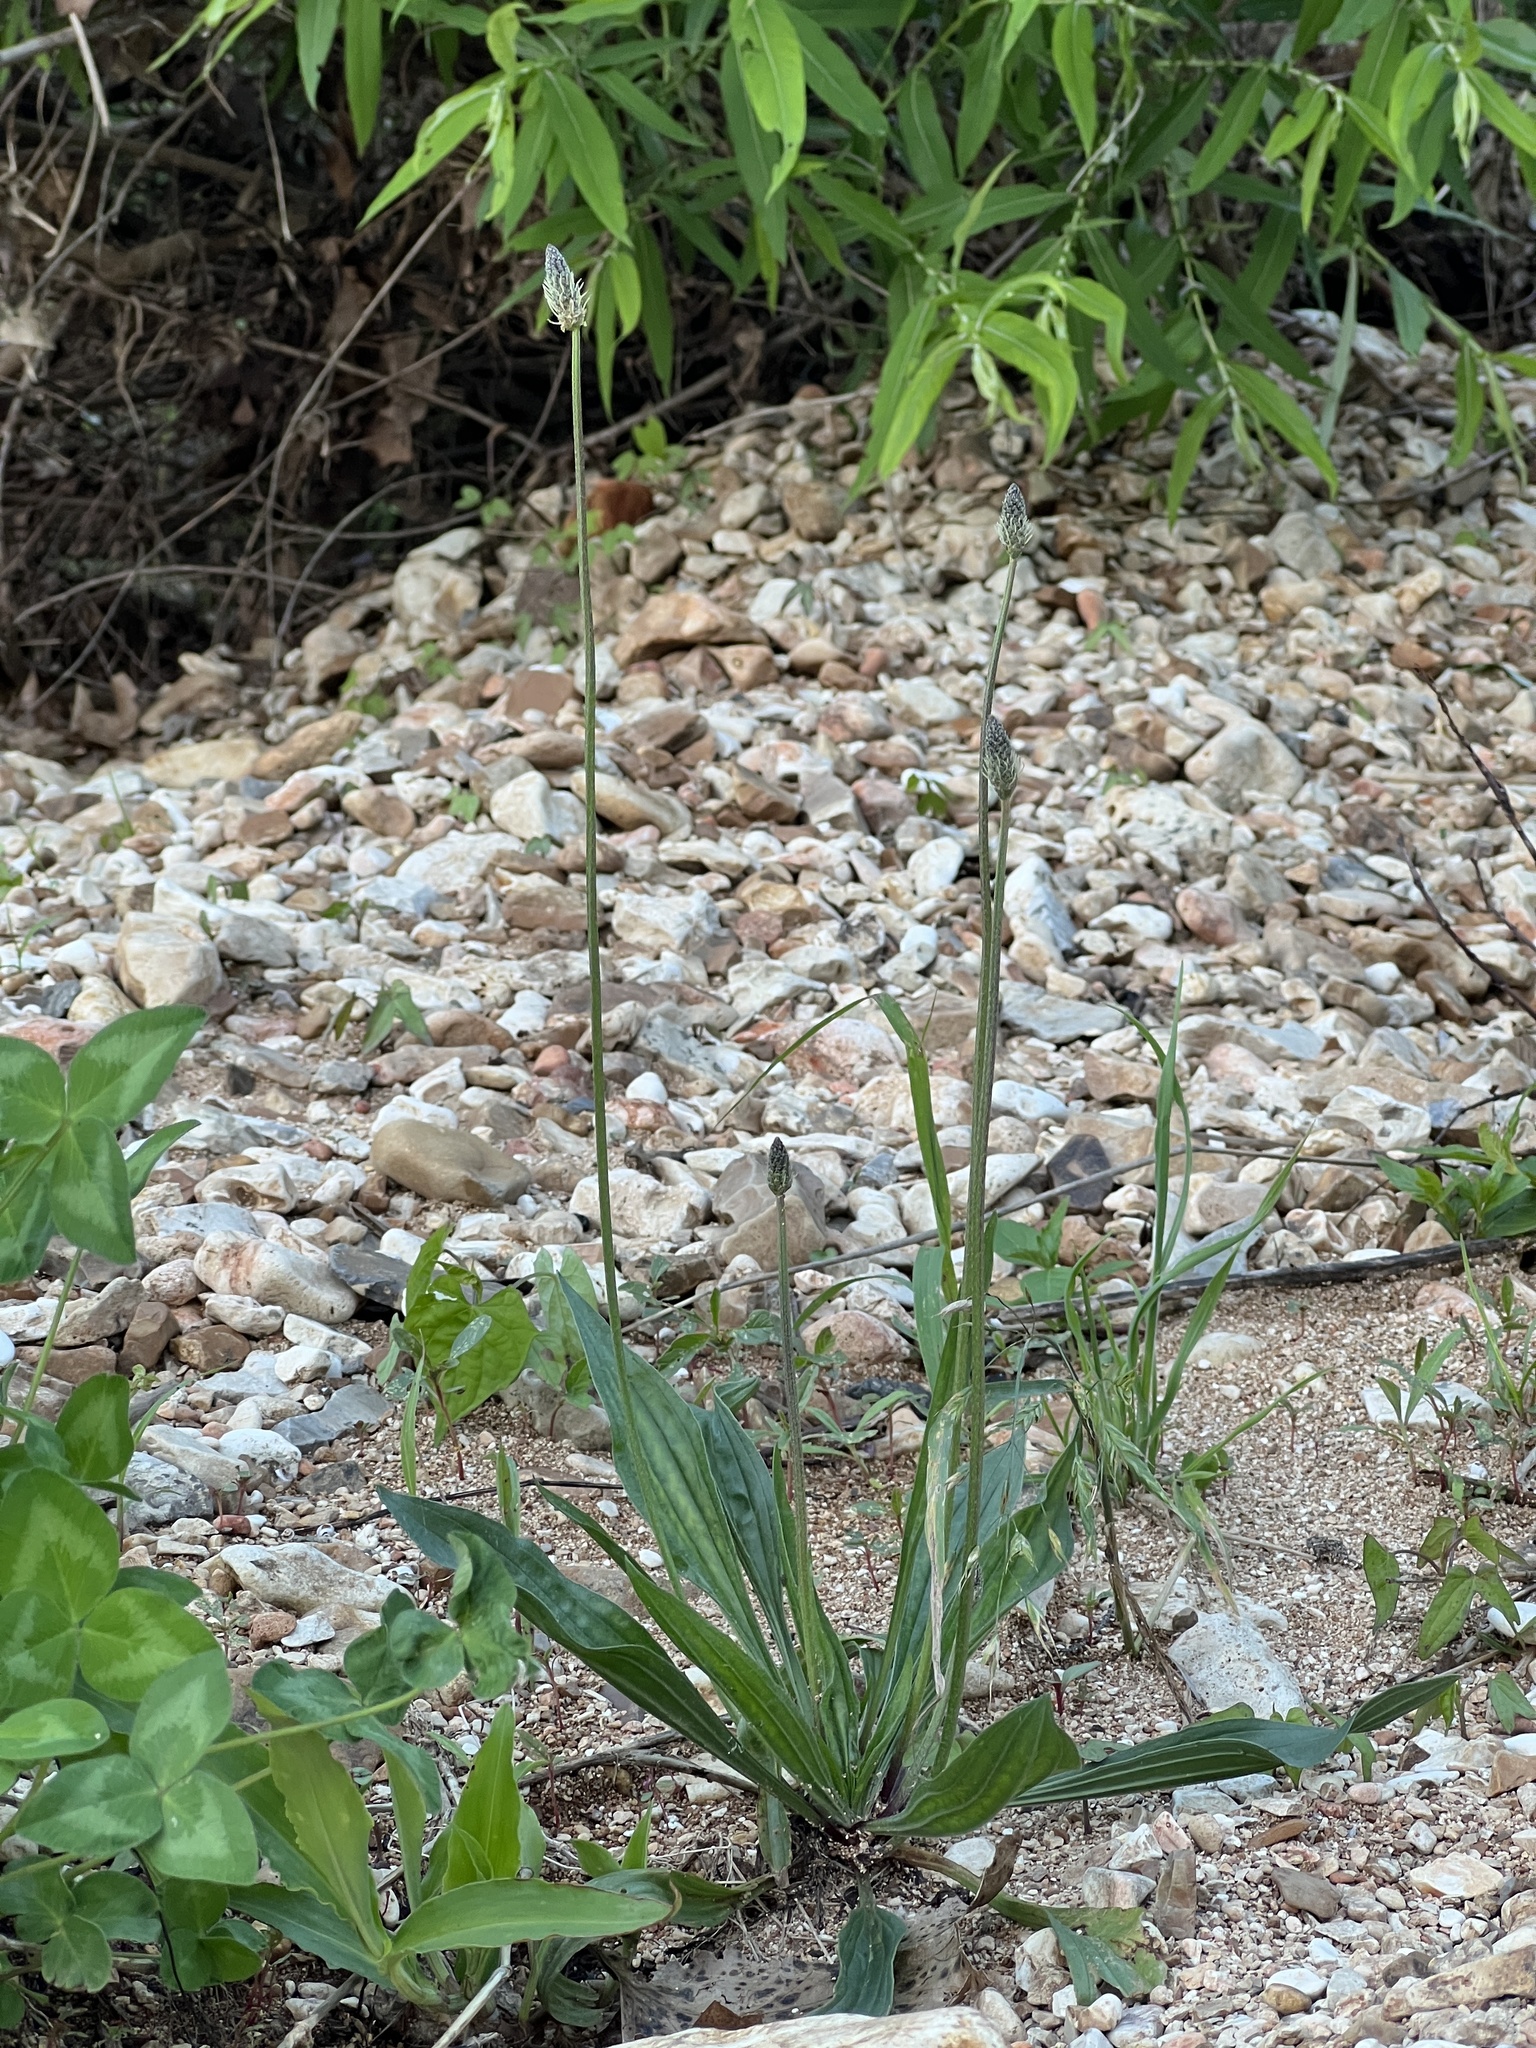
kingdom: Plantae
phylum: Tracheophyta
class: Magnoliopsida
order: Lamiales
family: Plantaginaceae
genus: Plantago
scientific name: Plantago lanceolata
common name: Ribwort plantain
